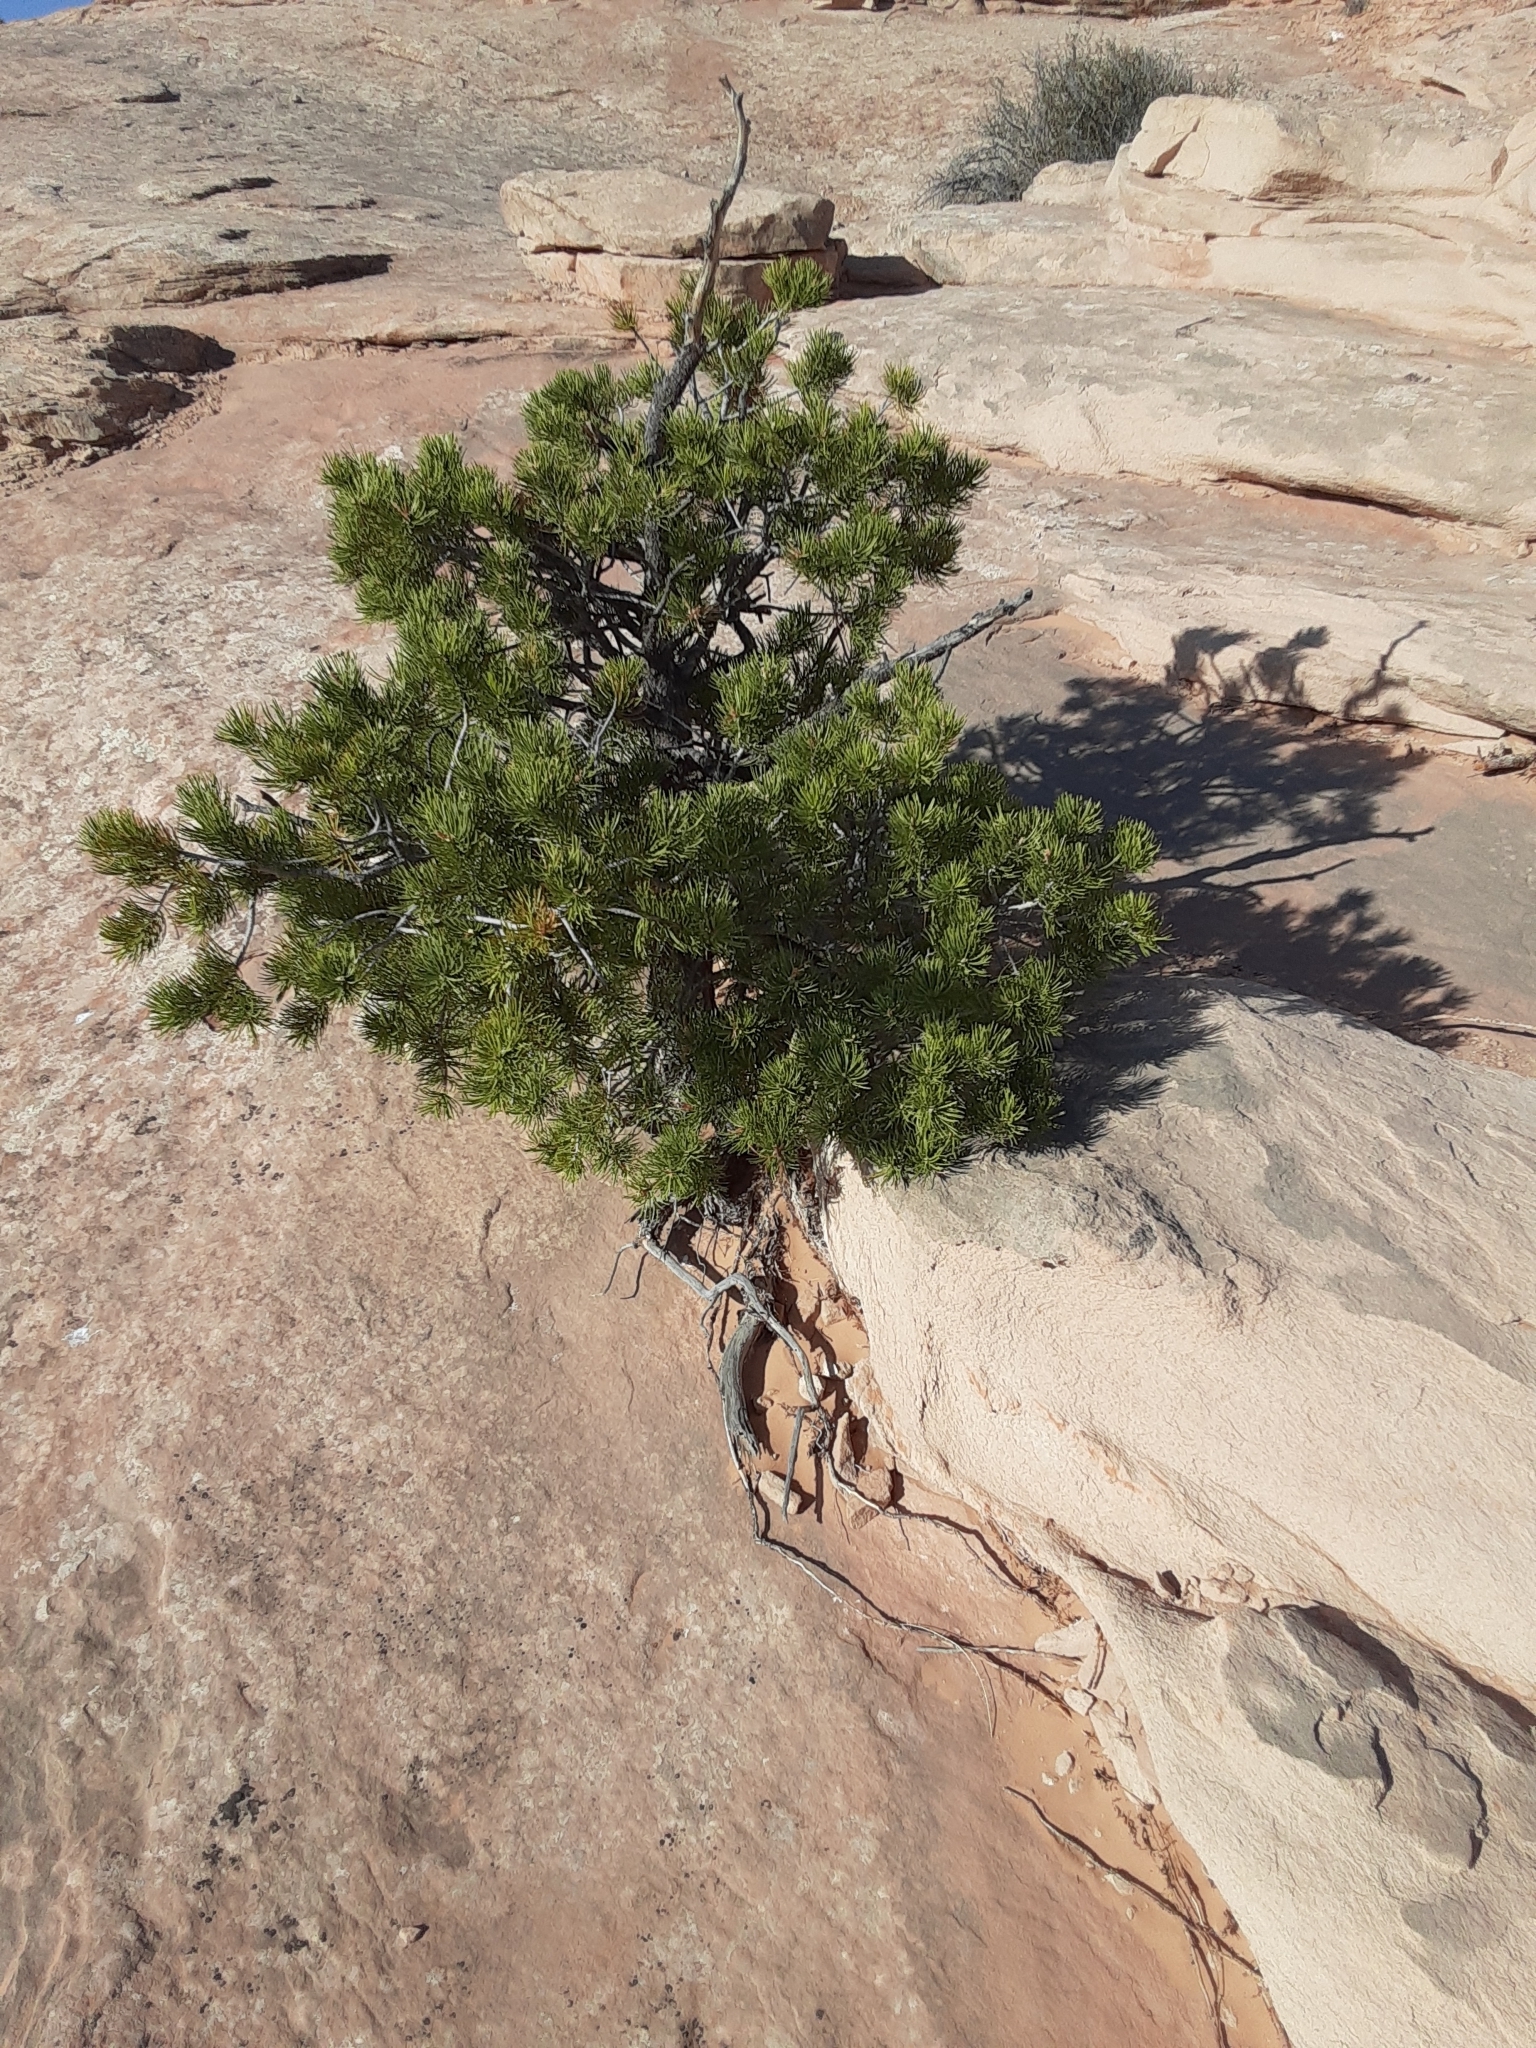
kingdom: Plantae
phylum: Tracheophyta
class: Pinopsida
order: Pinales
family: Pinaceae
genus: Pinus
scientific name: Pinus edulis
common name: Colorado pinyon
